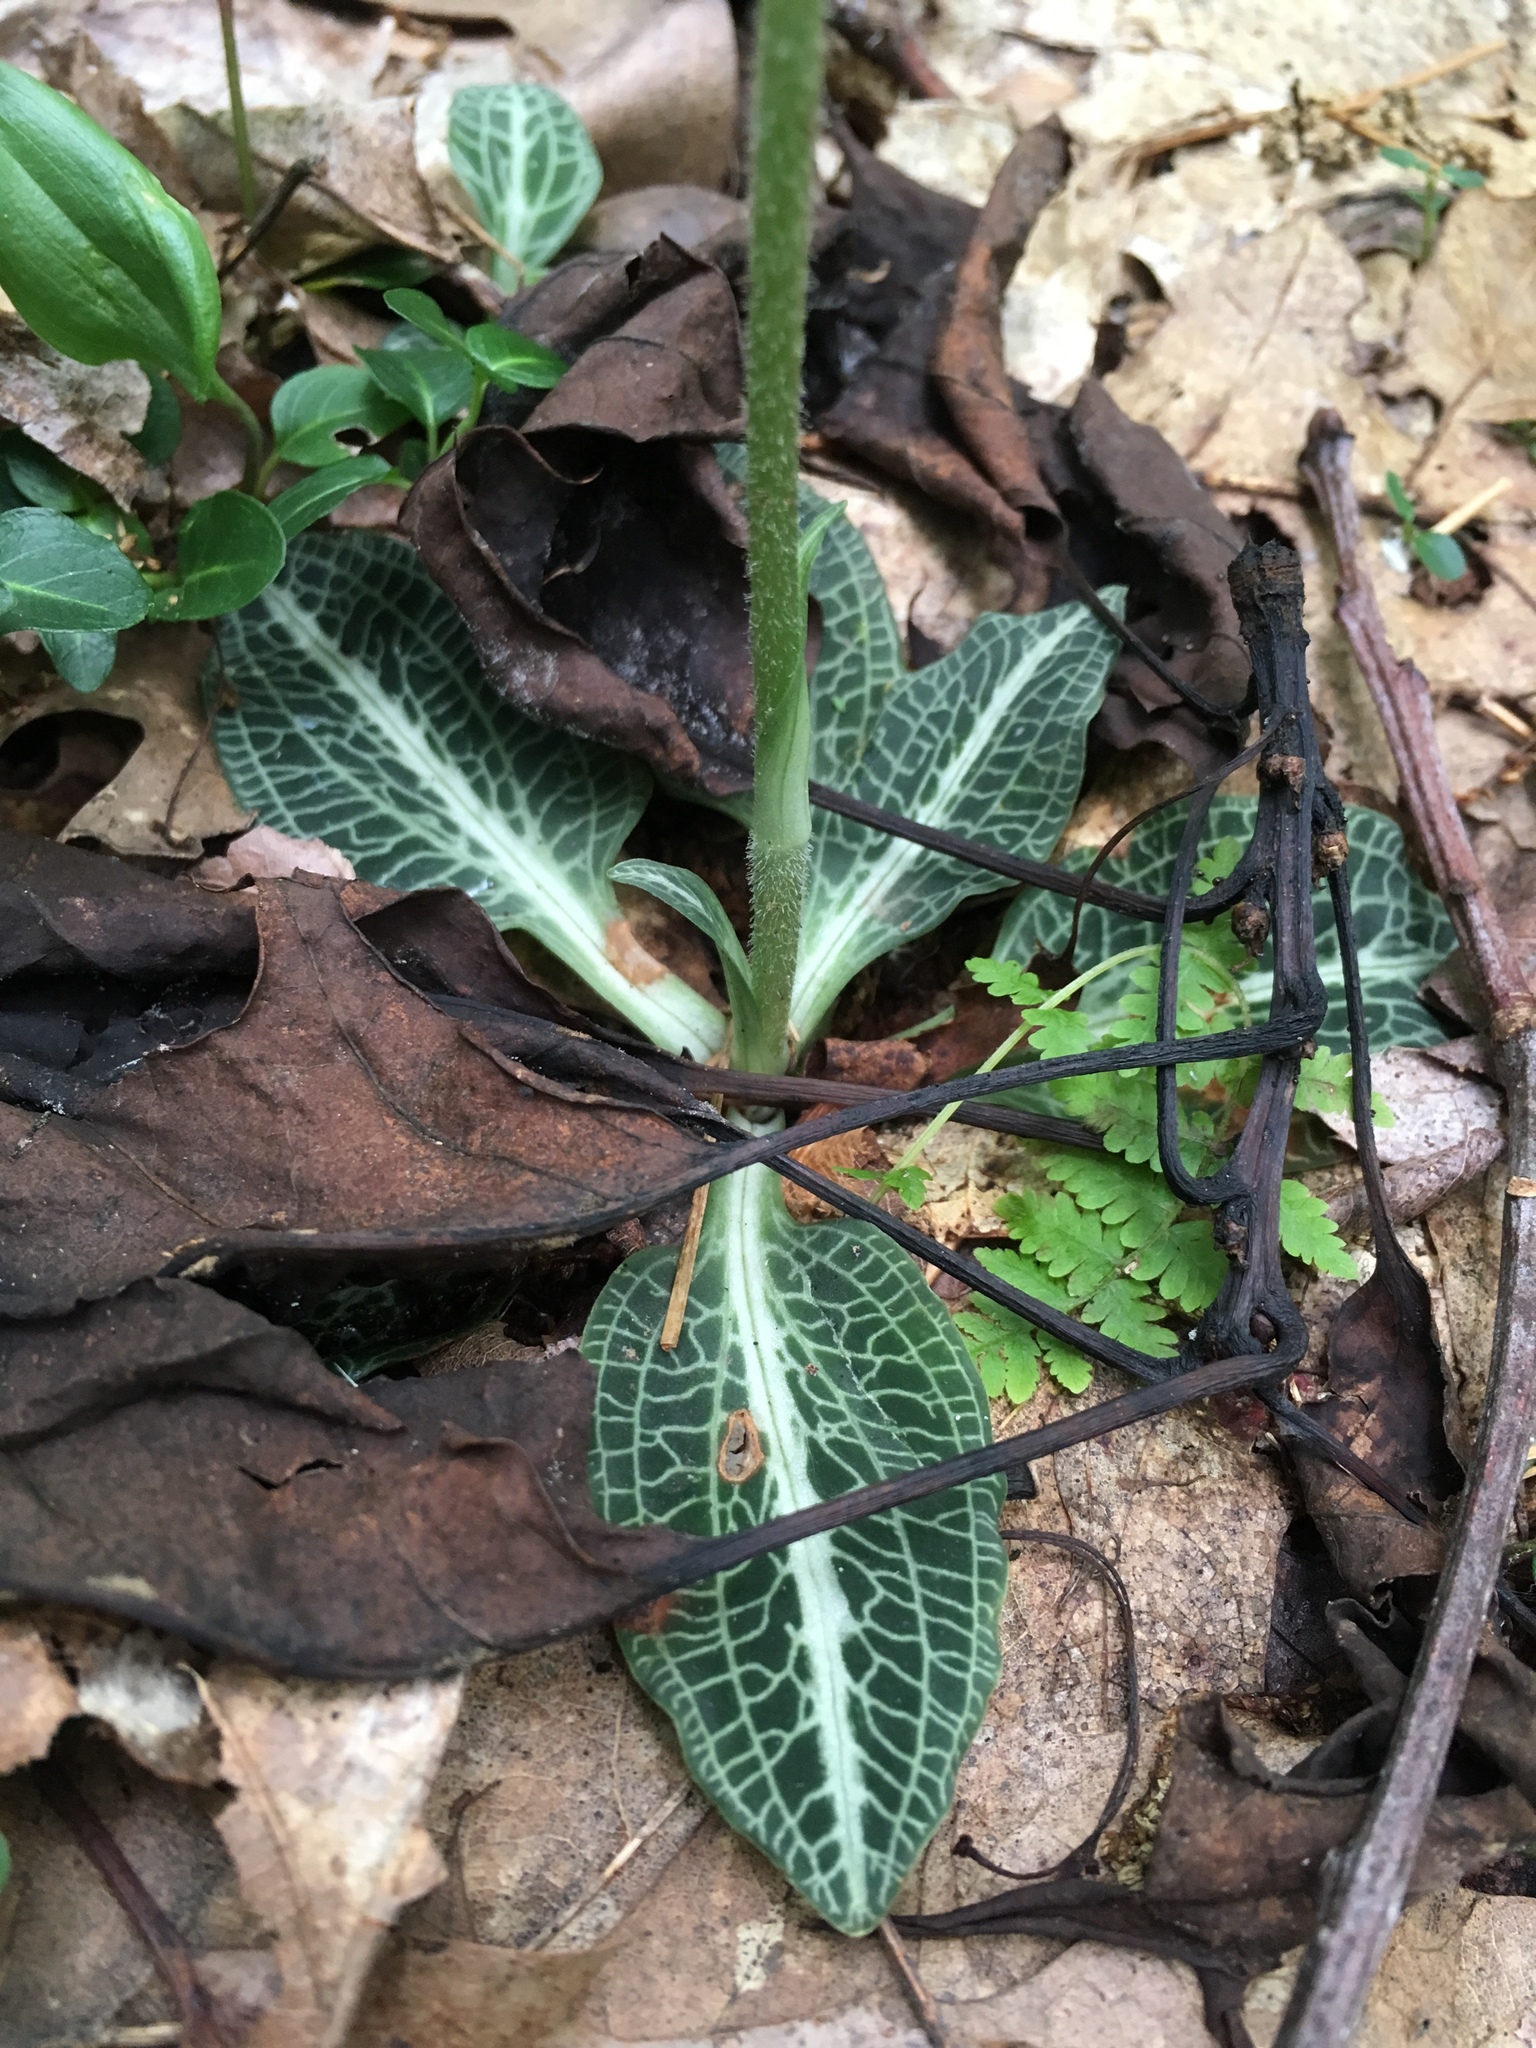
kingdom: Plantae
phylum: Tracheophyta
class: Liliopsida
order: Asparagales
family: Orchidaceae
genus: Goodyera
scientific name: Goodyera pubescens
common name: Downy rattlesnake-plantain
